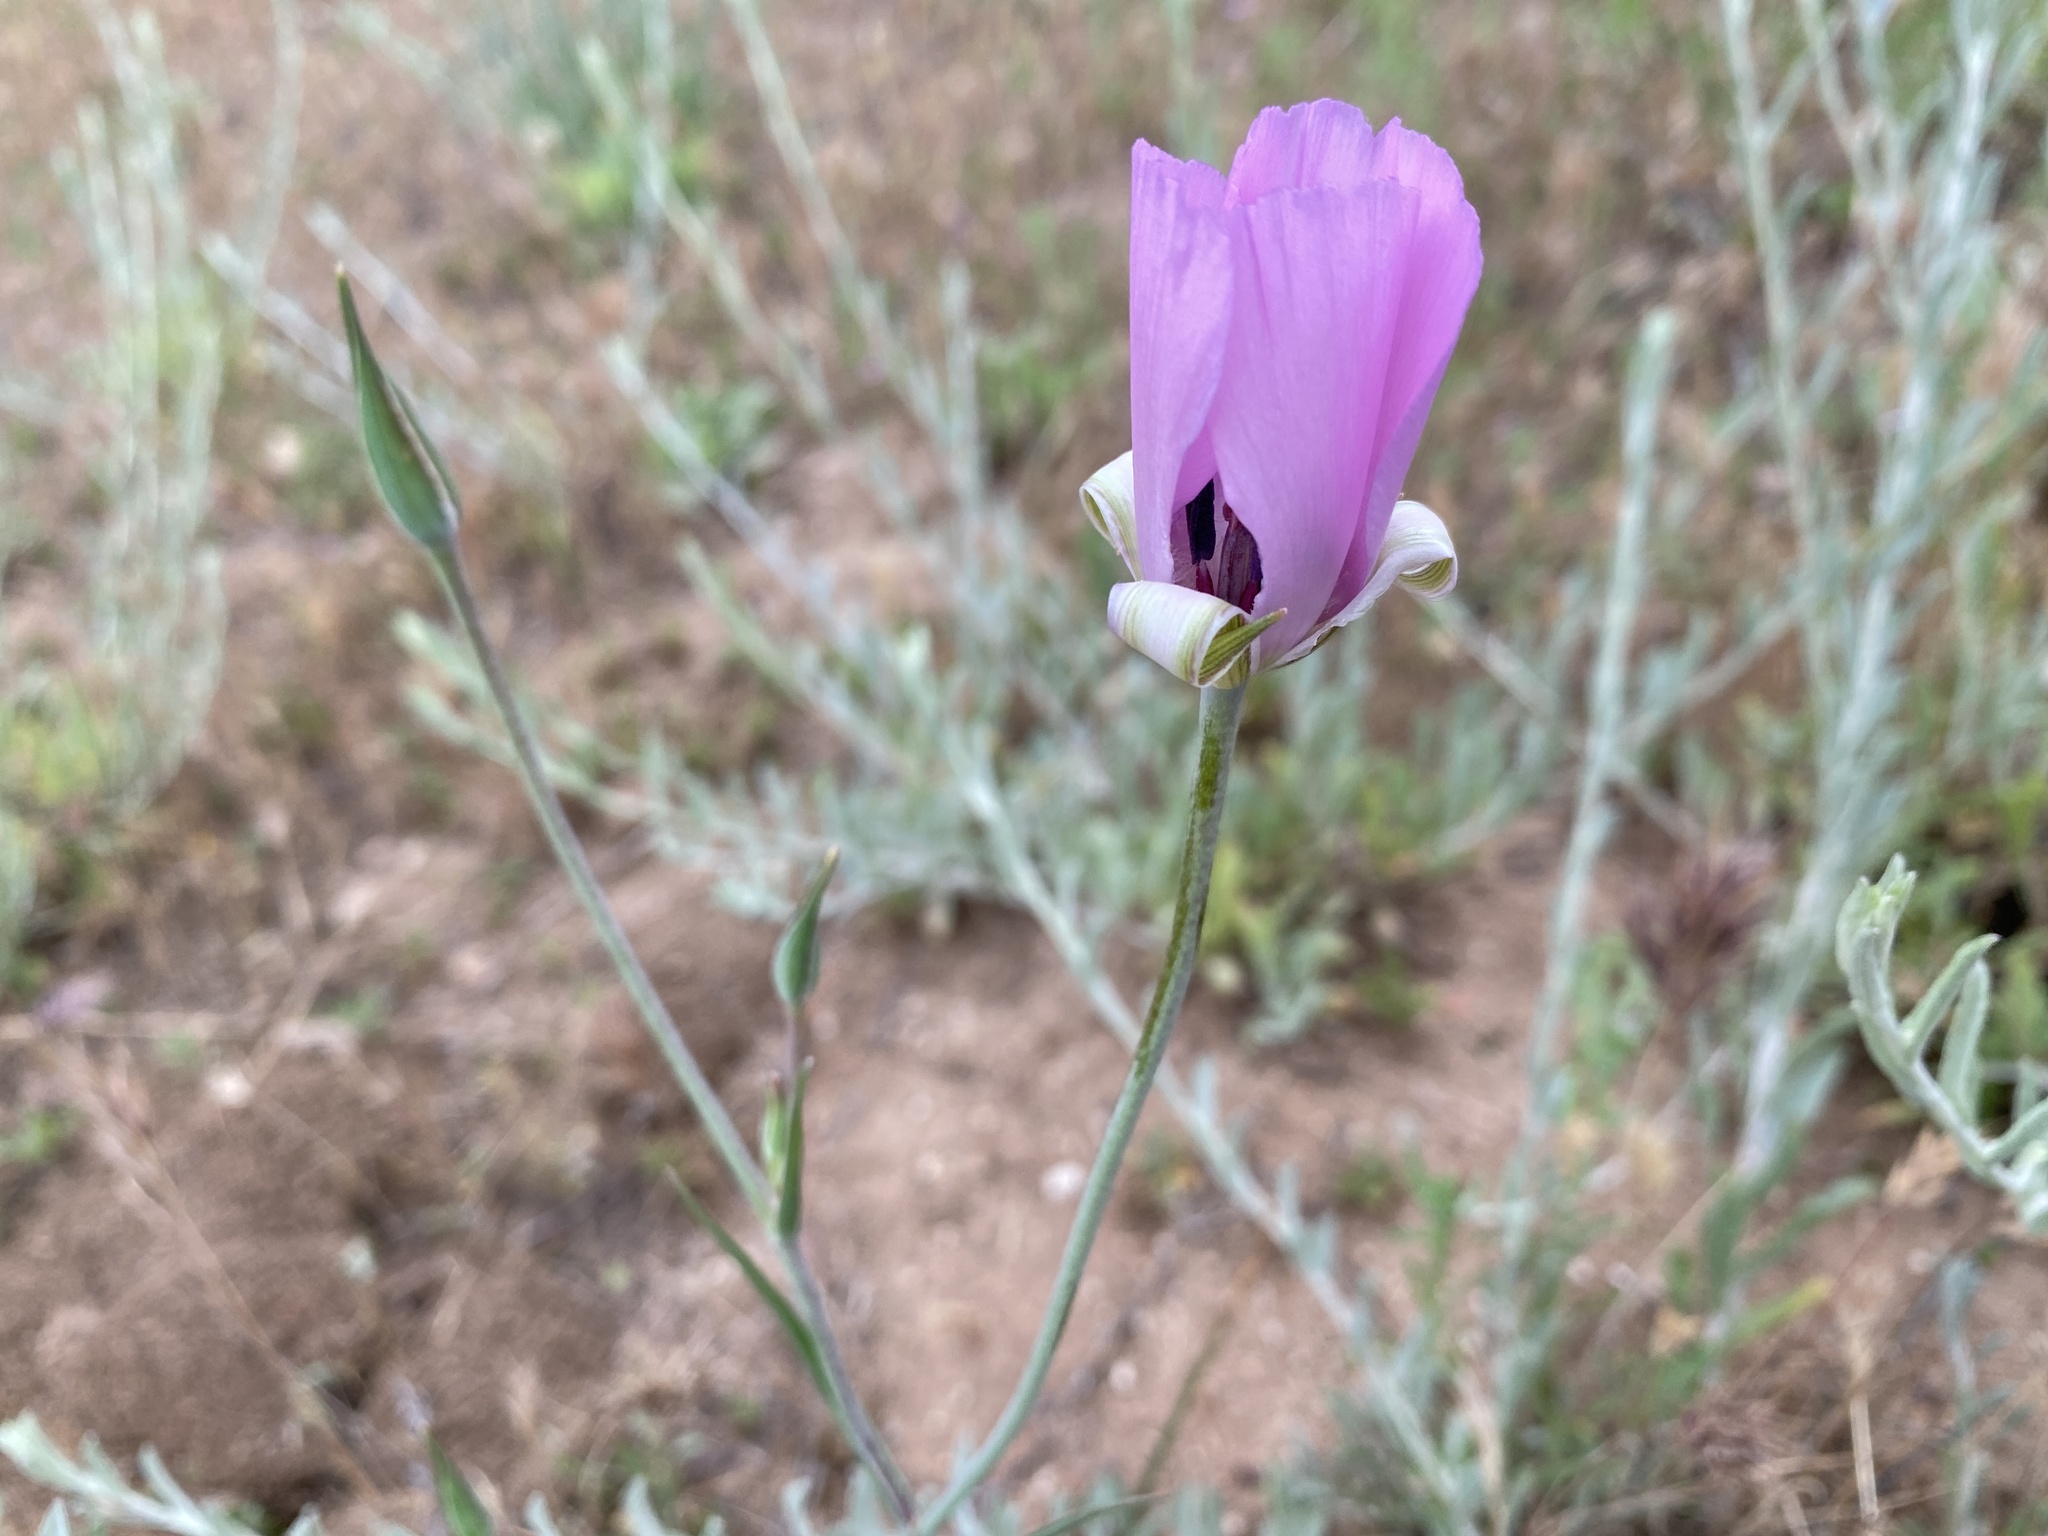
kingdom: Plantae
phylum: Tracheophyta
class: Liliopsida
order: Liliales
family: Liliaceae
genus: Calochortus
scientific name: Calochortus splendens
